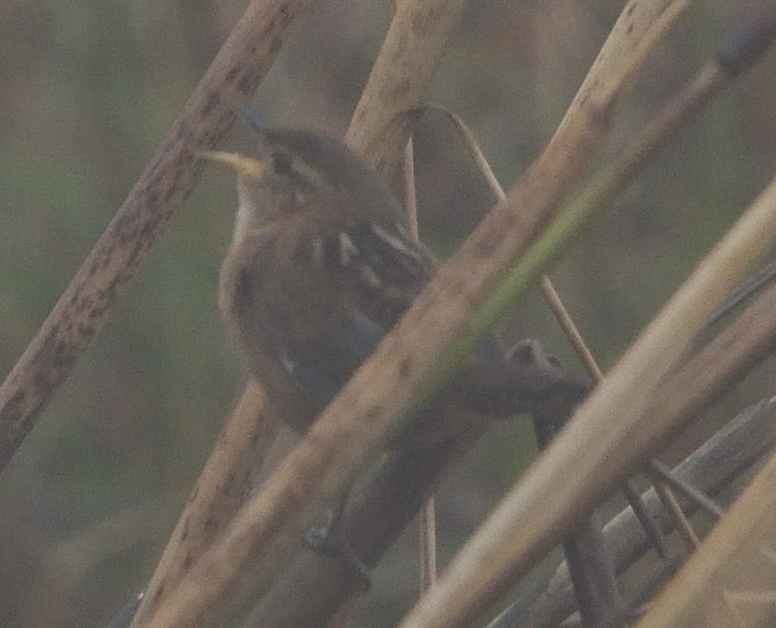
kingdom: Animalia
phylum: Chordata
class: Aves
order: Passeriformes
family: Troglodytidae
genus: Cistothorus
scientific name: Cistothorus platensis
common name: Sedge wren
